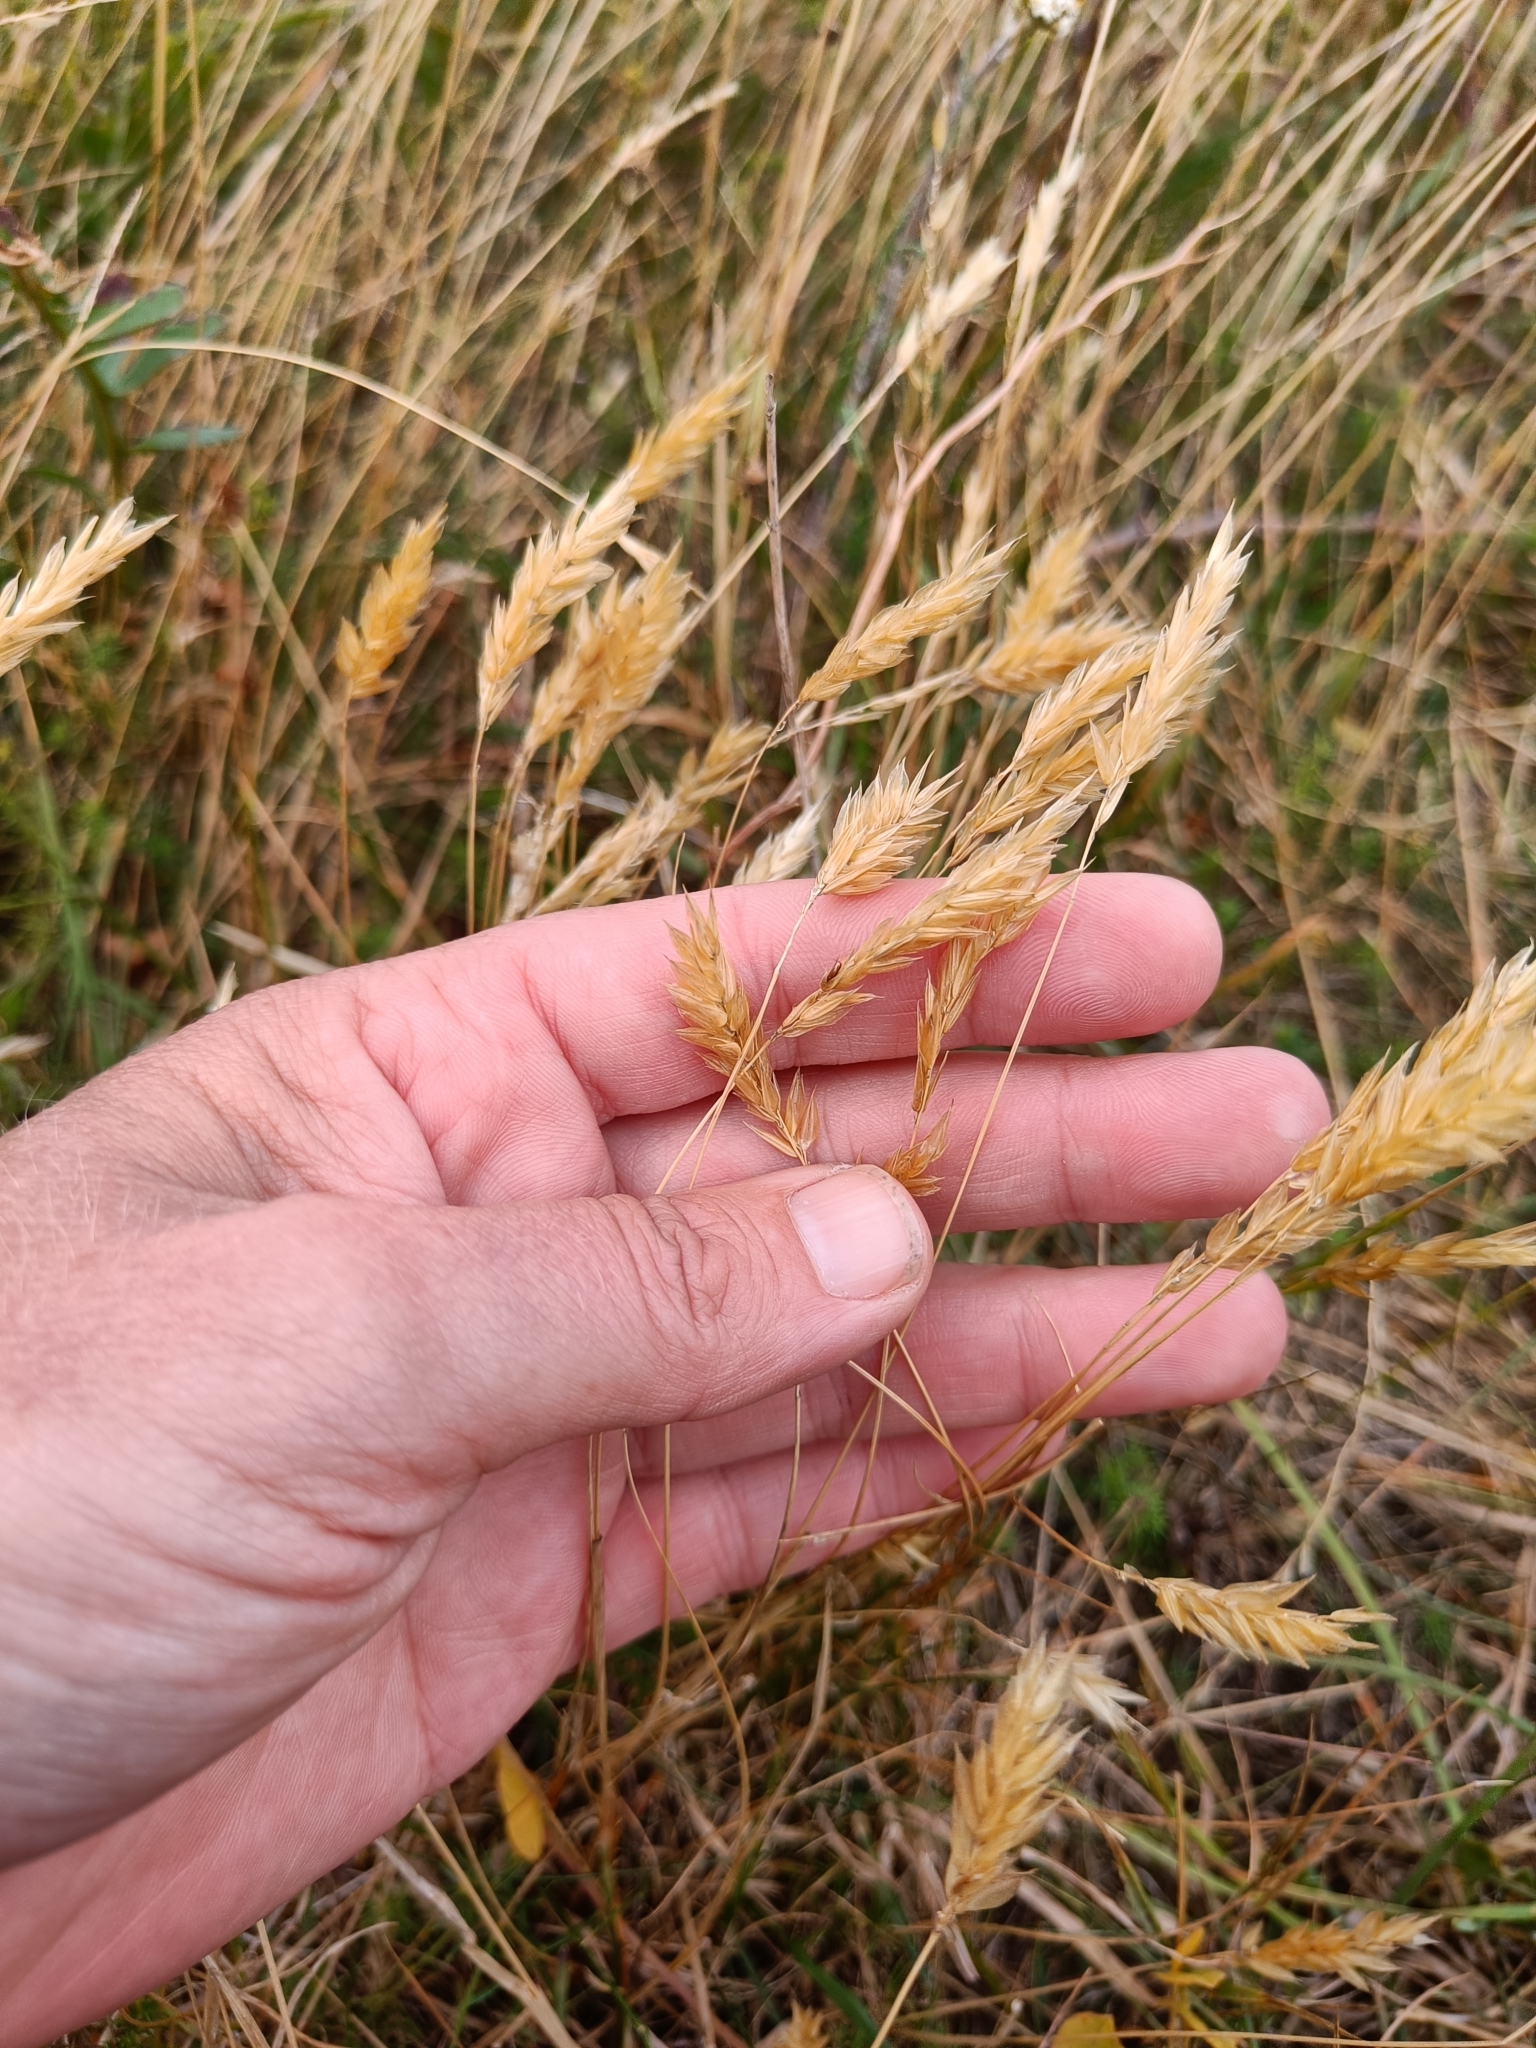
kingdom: Plantae
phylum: Tracheophyta
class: Liliopsida
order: Poales
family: Poaceae
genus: Anthoxanthum
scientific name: Anthoxanthum odoratum
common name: Sweet vernalgrass
